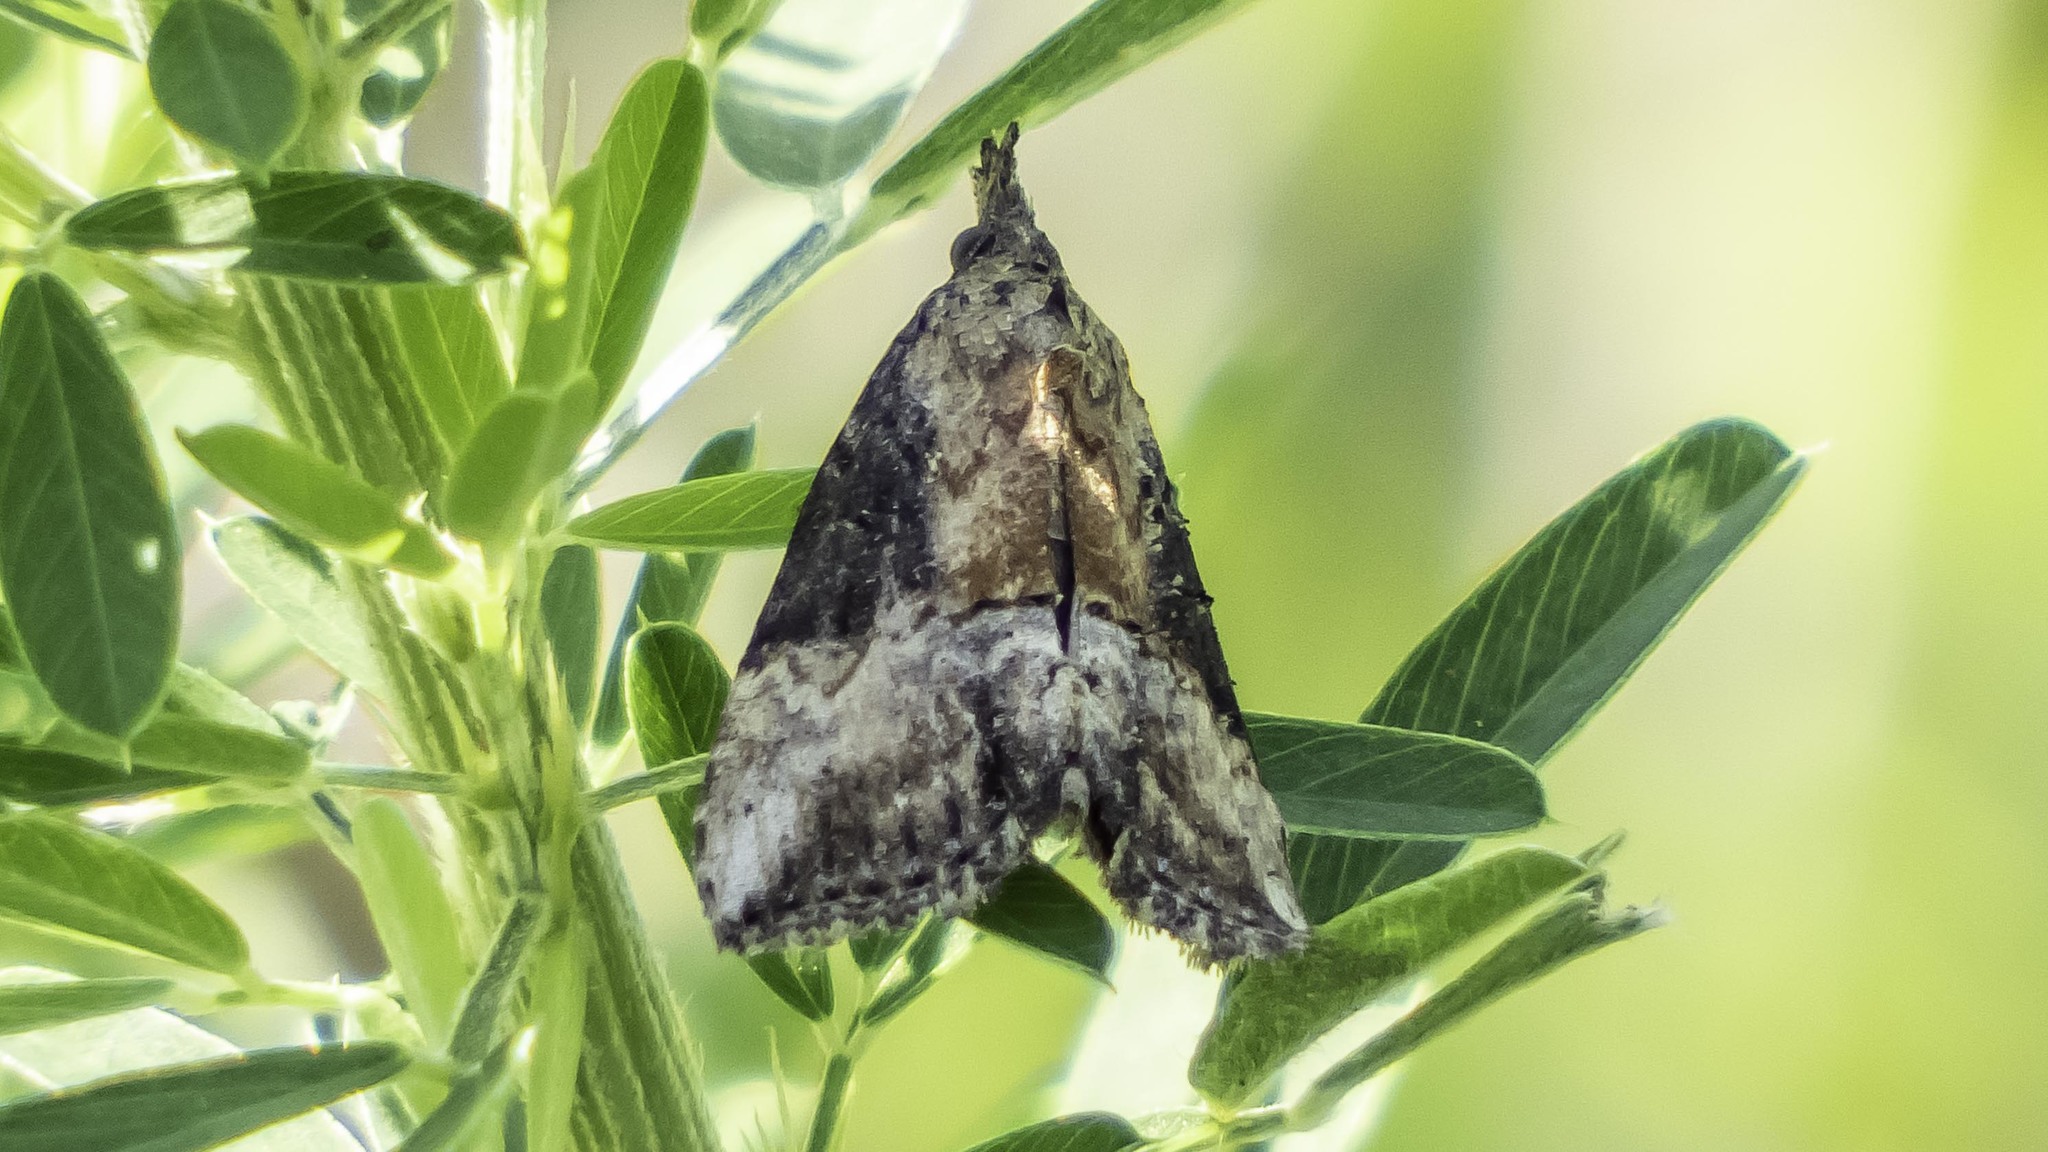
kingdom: Animalia
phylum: Arthropoda
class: Insecta
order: Lepidoptera
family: Erebidae
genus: Hypena
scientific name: Hypena scabra
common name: Green cloverworm
